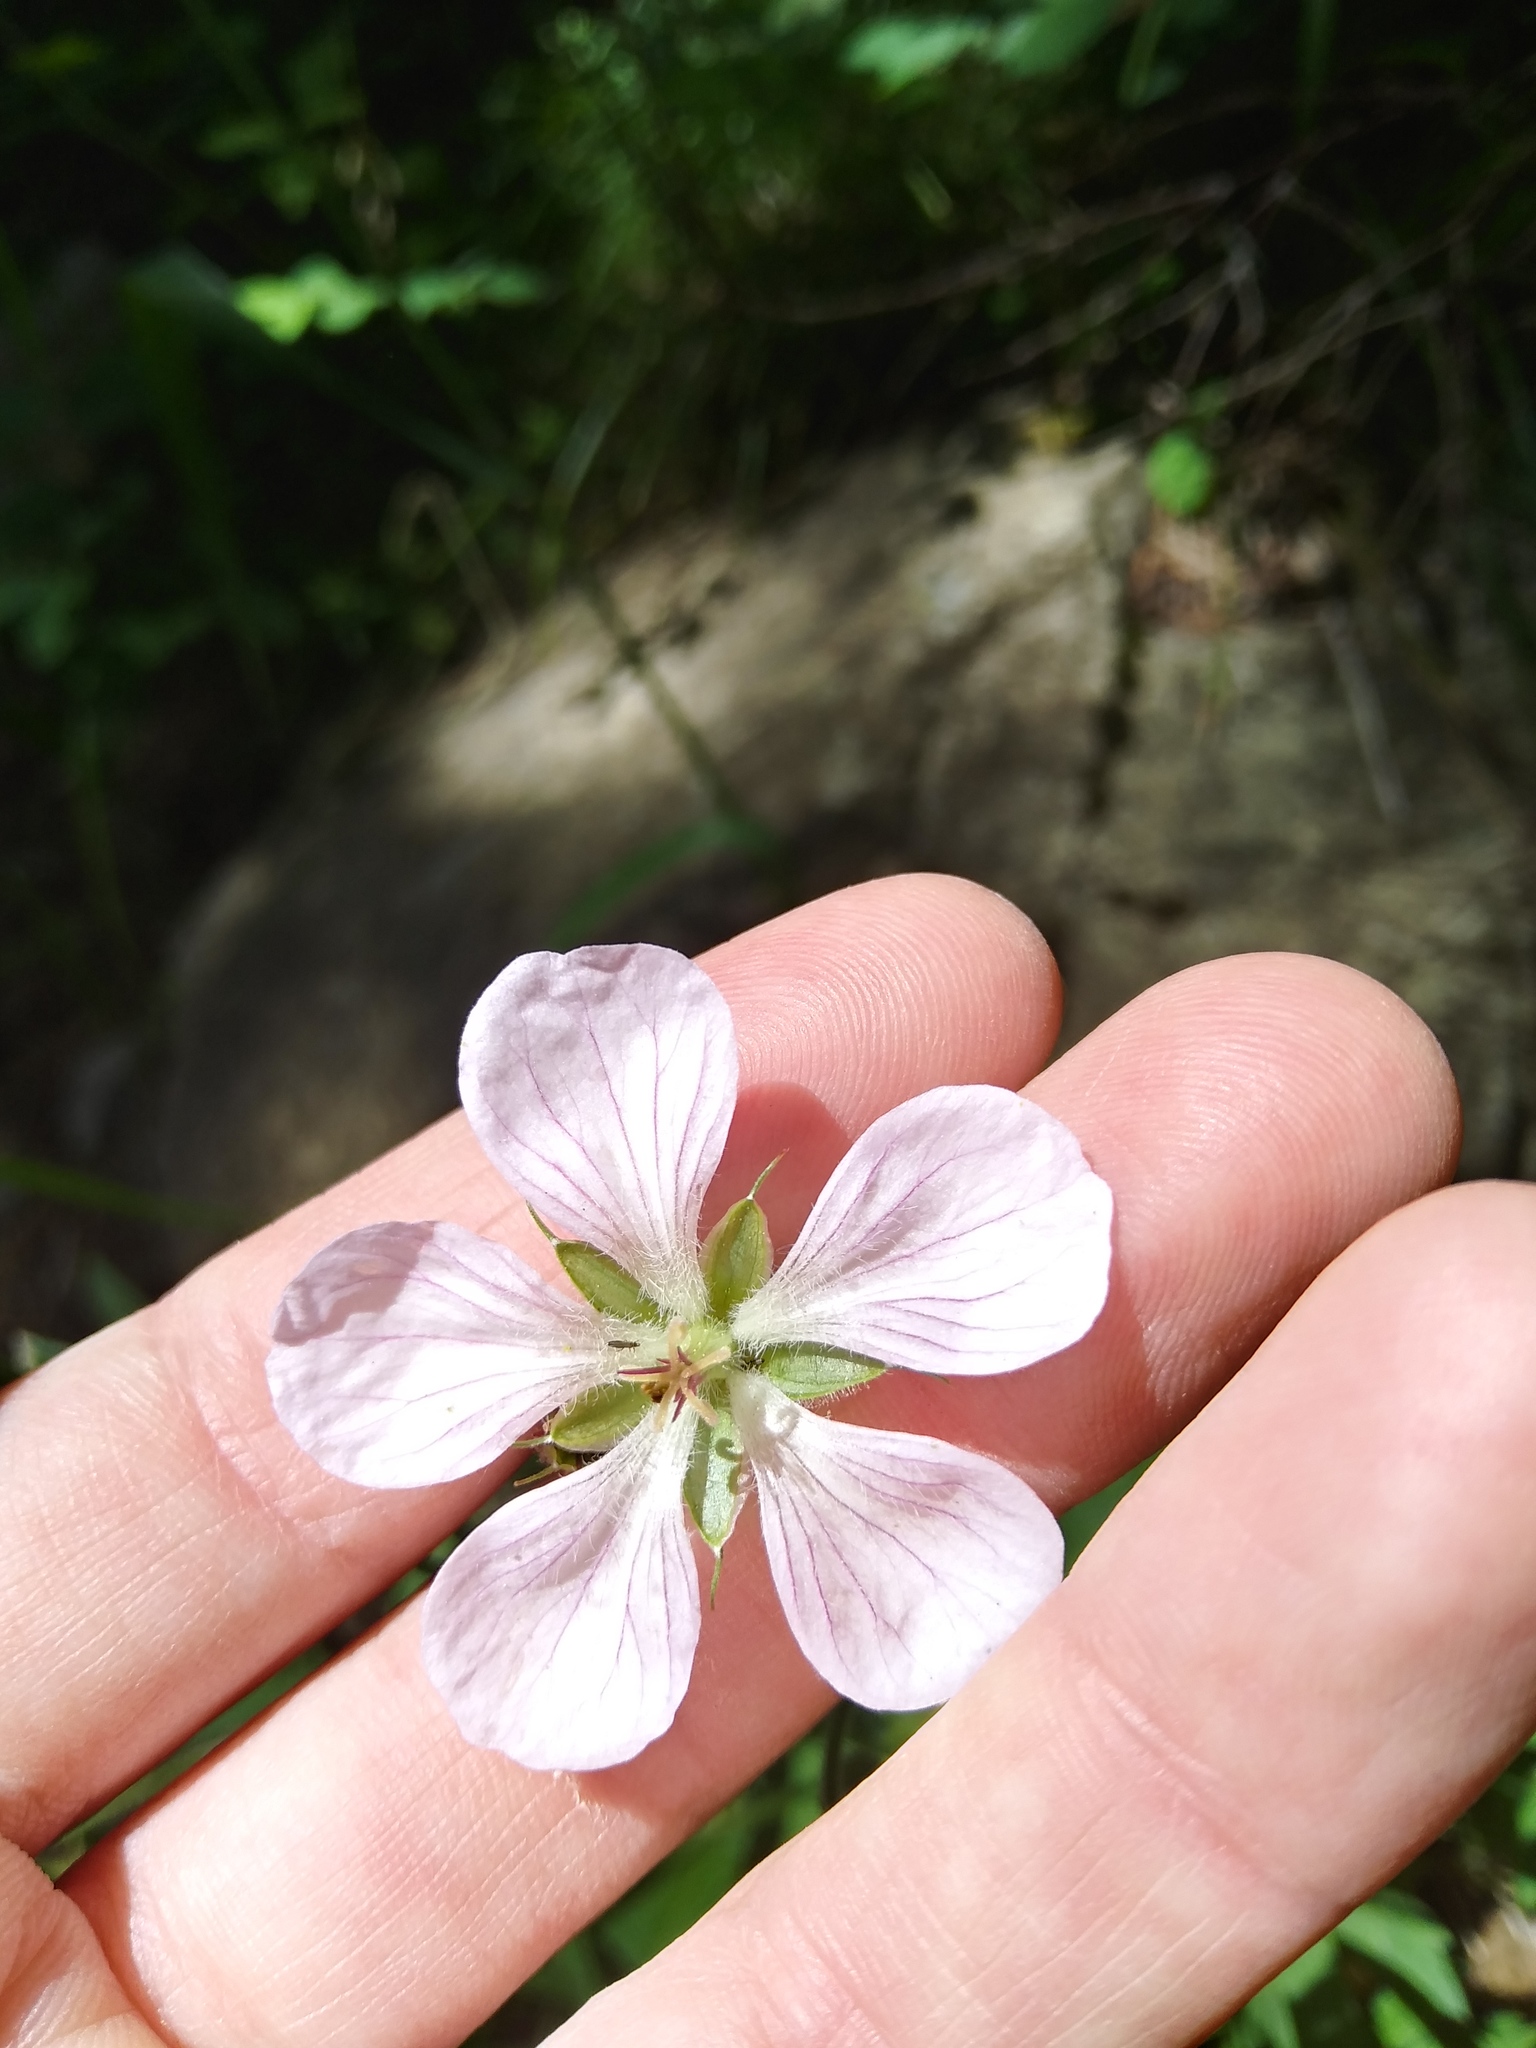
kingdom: Plantae
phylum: Tracheophyta
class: Magnoliopsida
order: Geraniales
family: Geraniaceae
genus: Geranium
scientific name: Geranium richardsonii
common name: Richardson's crane's-bill
